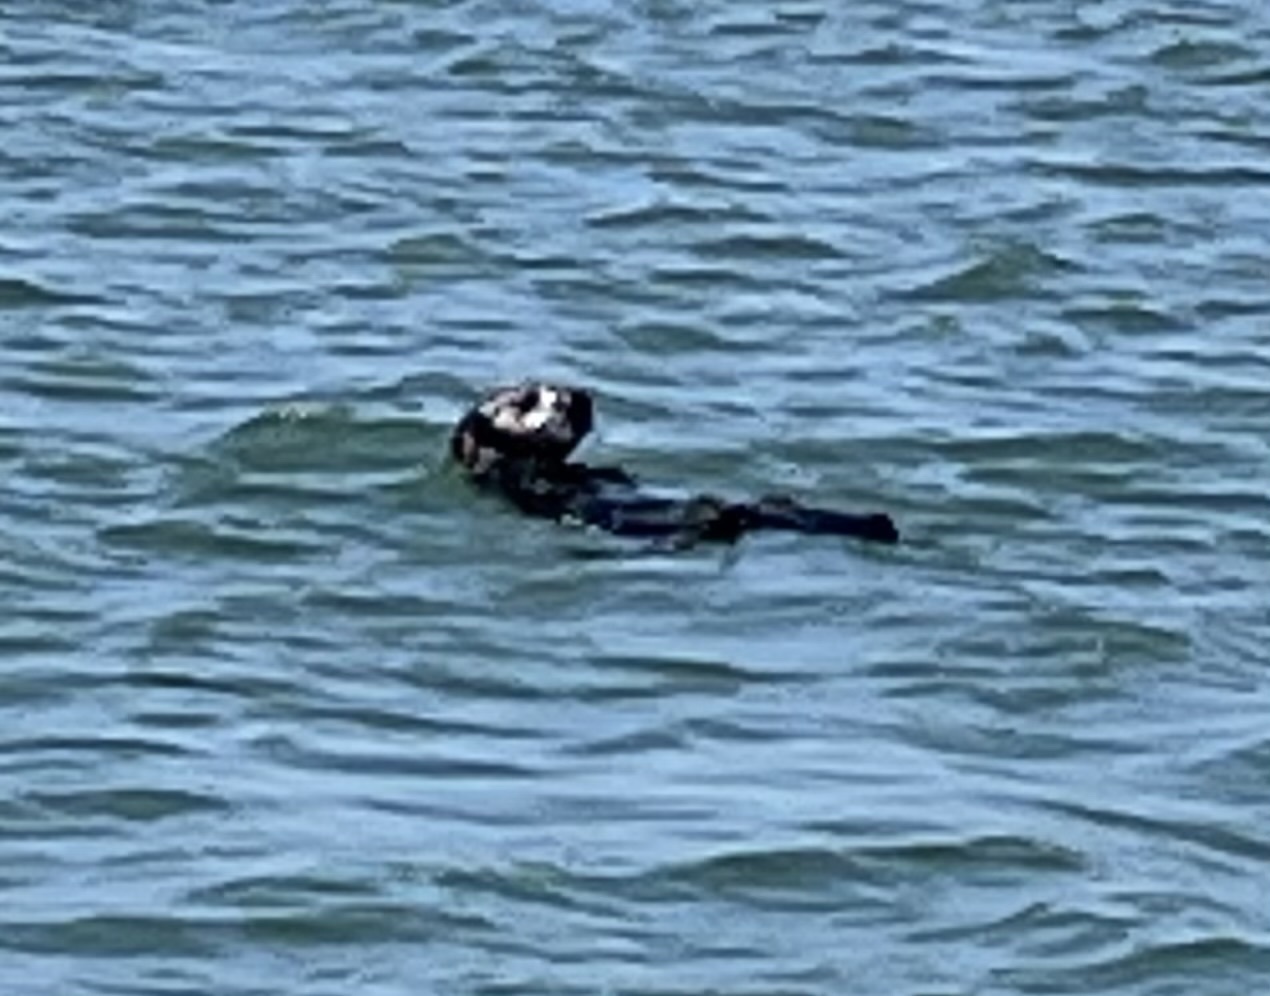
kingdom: Animalia
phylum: Chordata
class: Mammalia
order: Carnivora
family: Mustelidae
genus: Enhydra
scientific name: Enhydra lutris
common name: Sea otter
